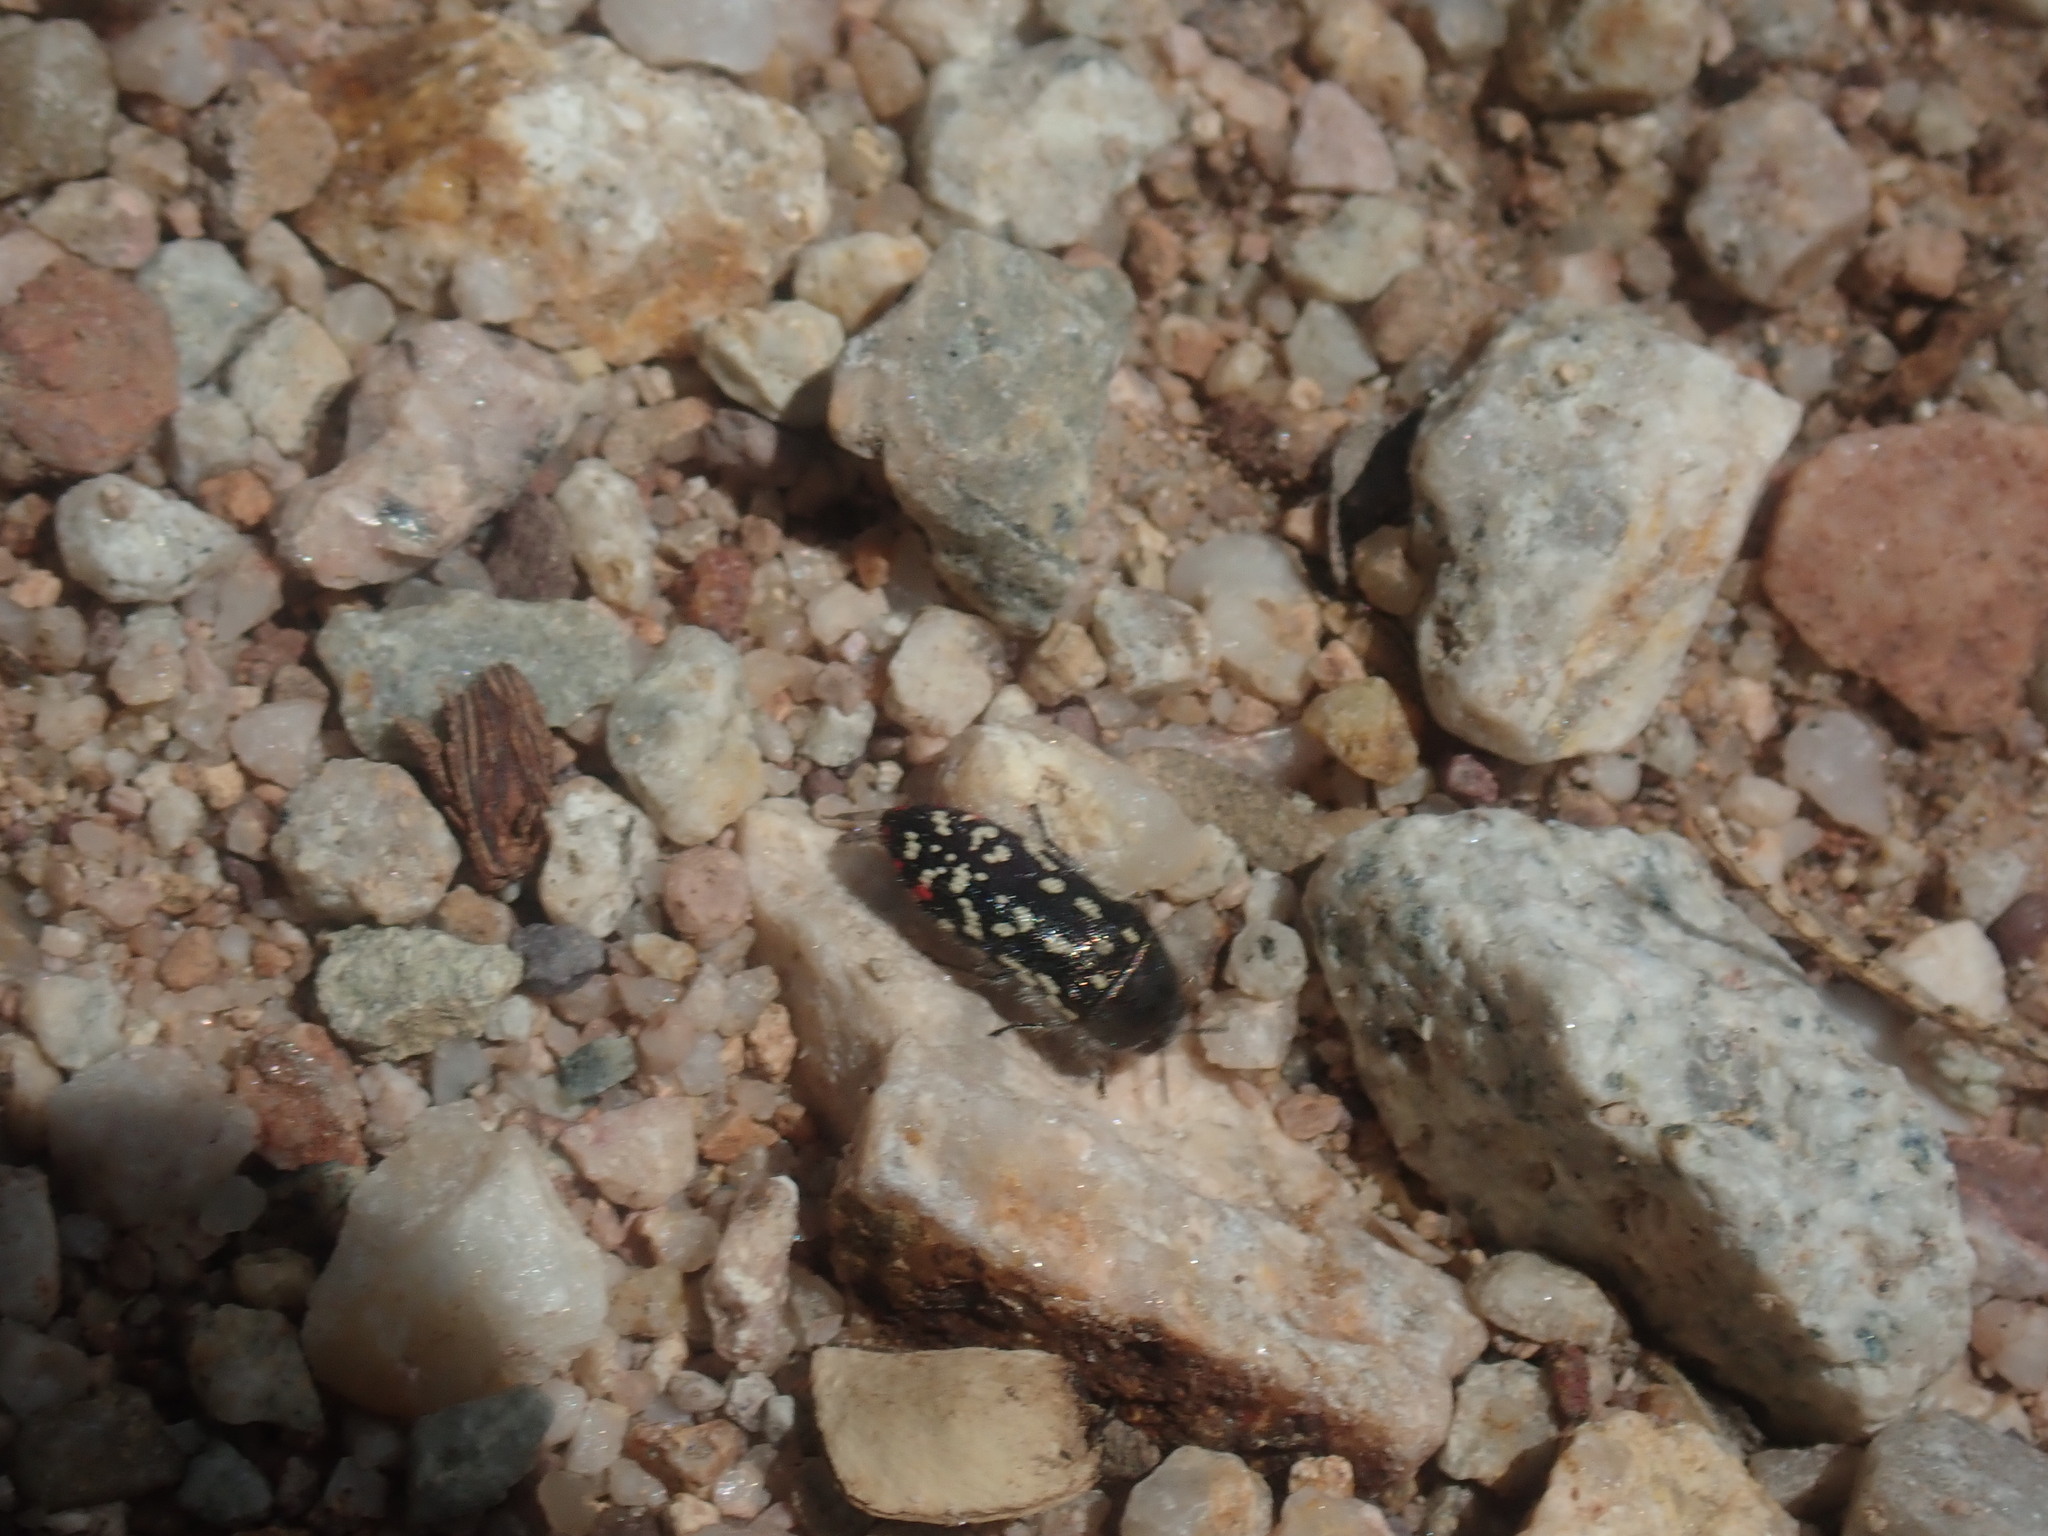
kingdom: Animalia
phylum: Arthropoda
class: Insecta
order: Coleoptera
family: Buprestidae
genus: Acmaeodera
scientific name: Acmaeodera rubronotata
